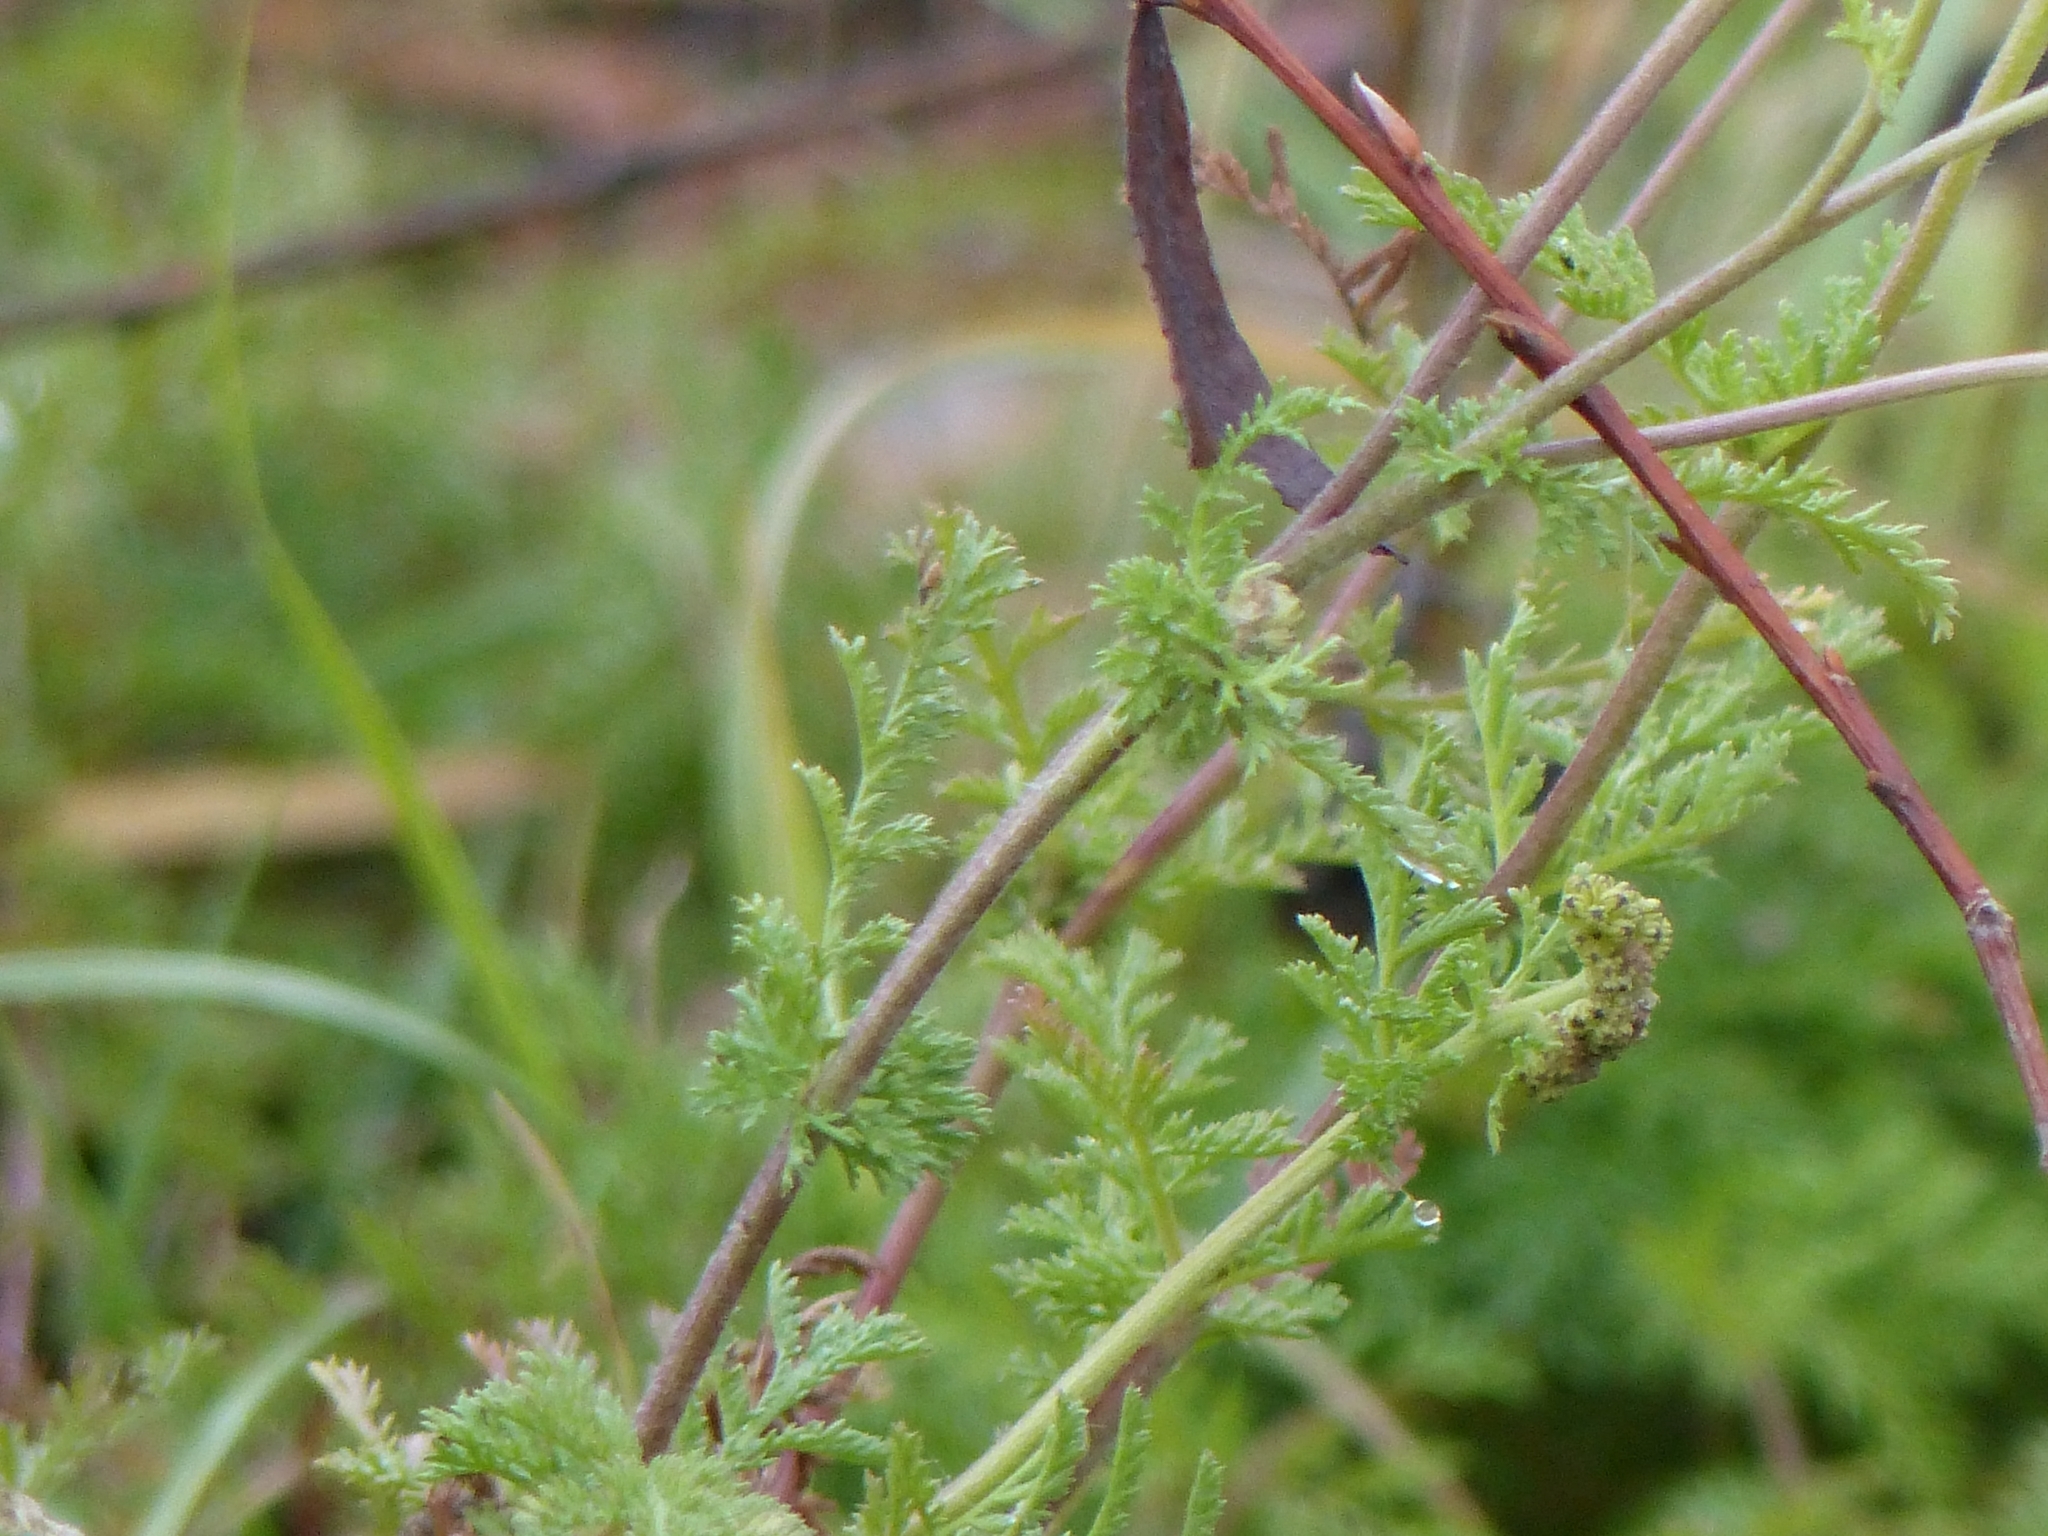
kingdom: Plantae
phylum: Tracheophyta
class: Magnoliopsida
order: Asterales
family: Asteraceae
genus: Achillea
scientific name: Achillea nobilis
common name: Noble yarrow
